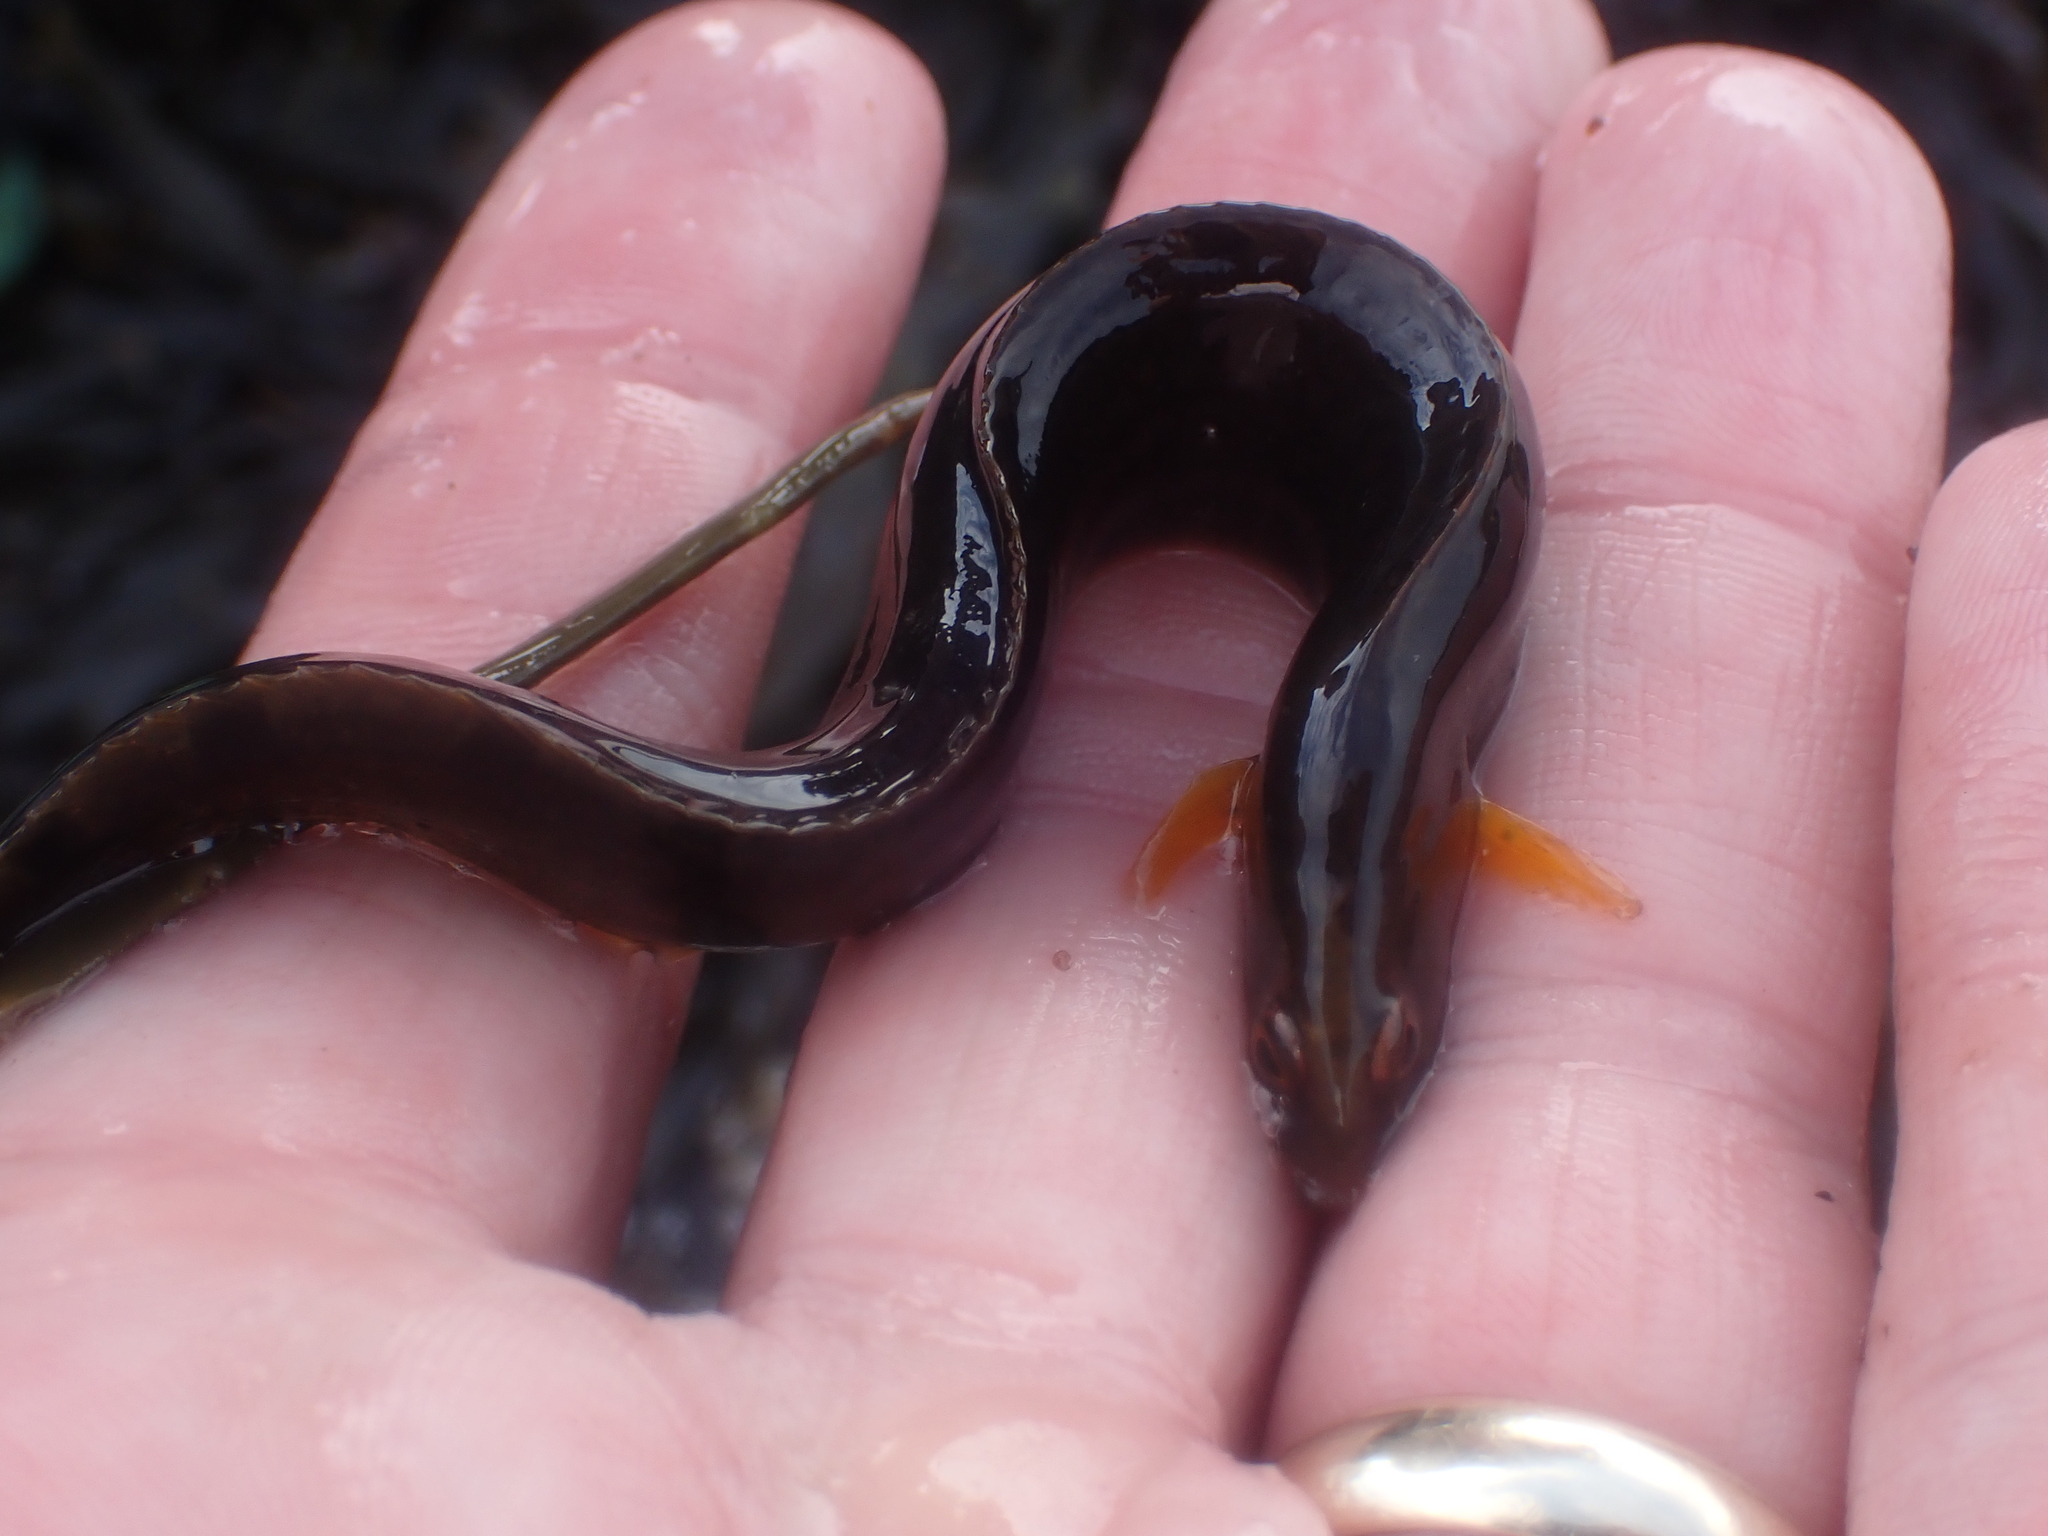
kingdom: Animalia
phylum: Chordata
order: Perciformes
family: Pholidae
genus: Pholis
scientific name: Pholis gunnellus
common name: Butterfish
